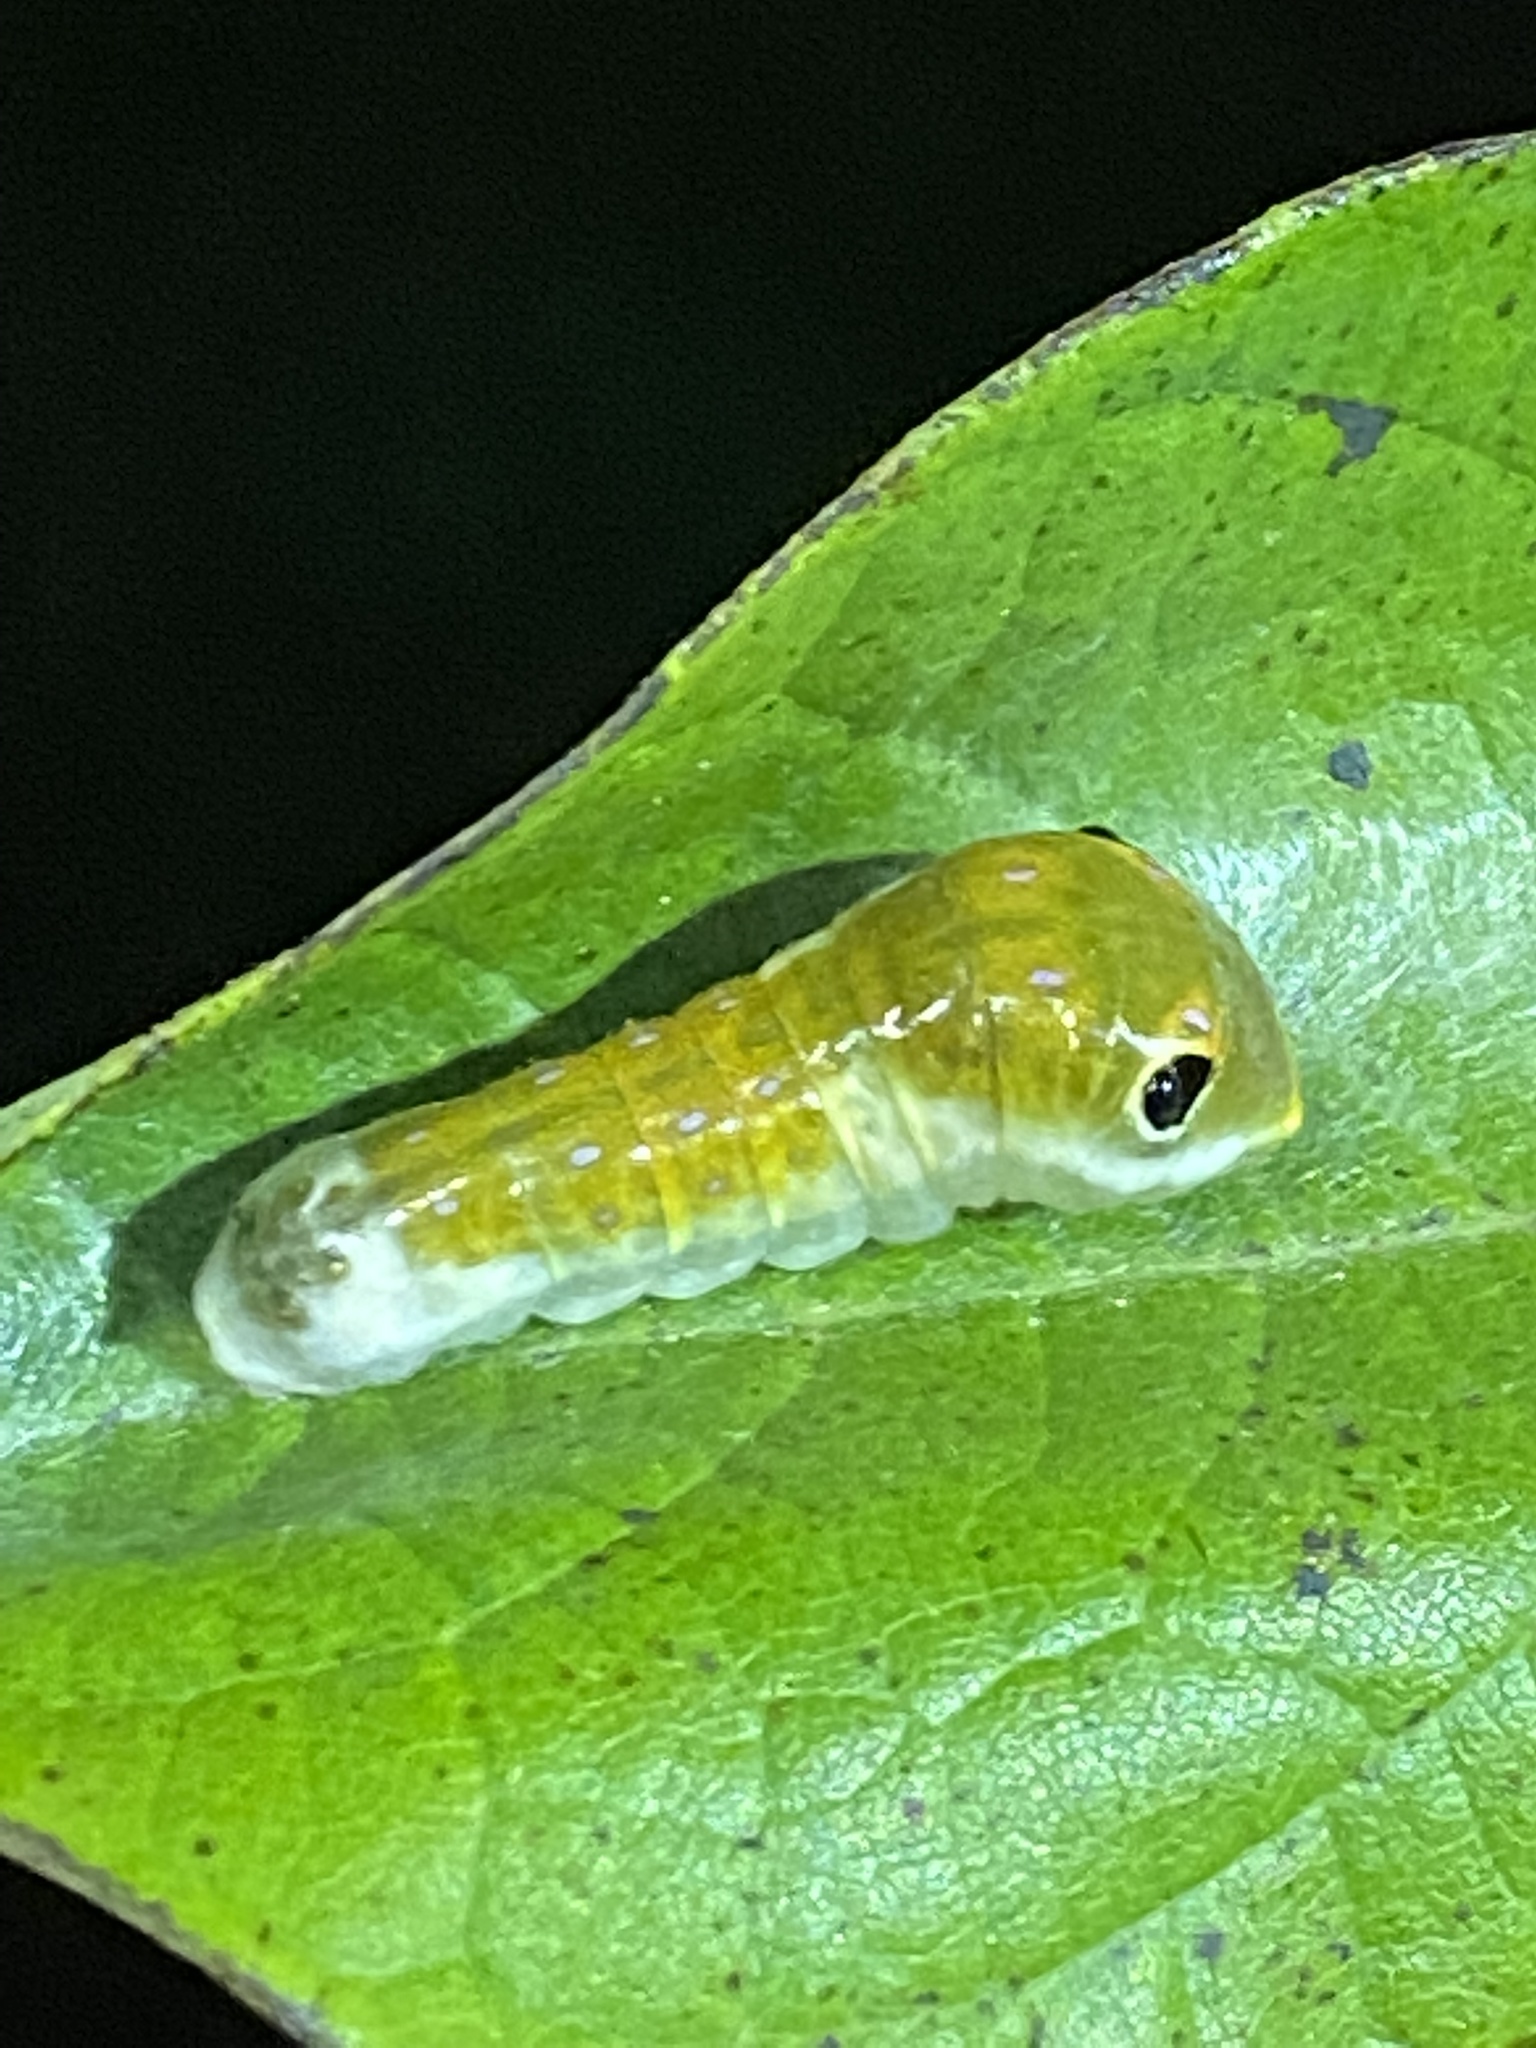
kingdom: Animalia
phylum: Arthropoda
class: Insecta
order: Lepidoptera
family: Papilionidae
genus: Papilio
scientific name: Papilio troilus
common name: Spicebush swallowtail
